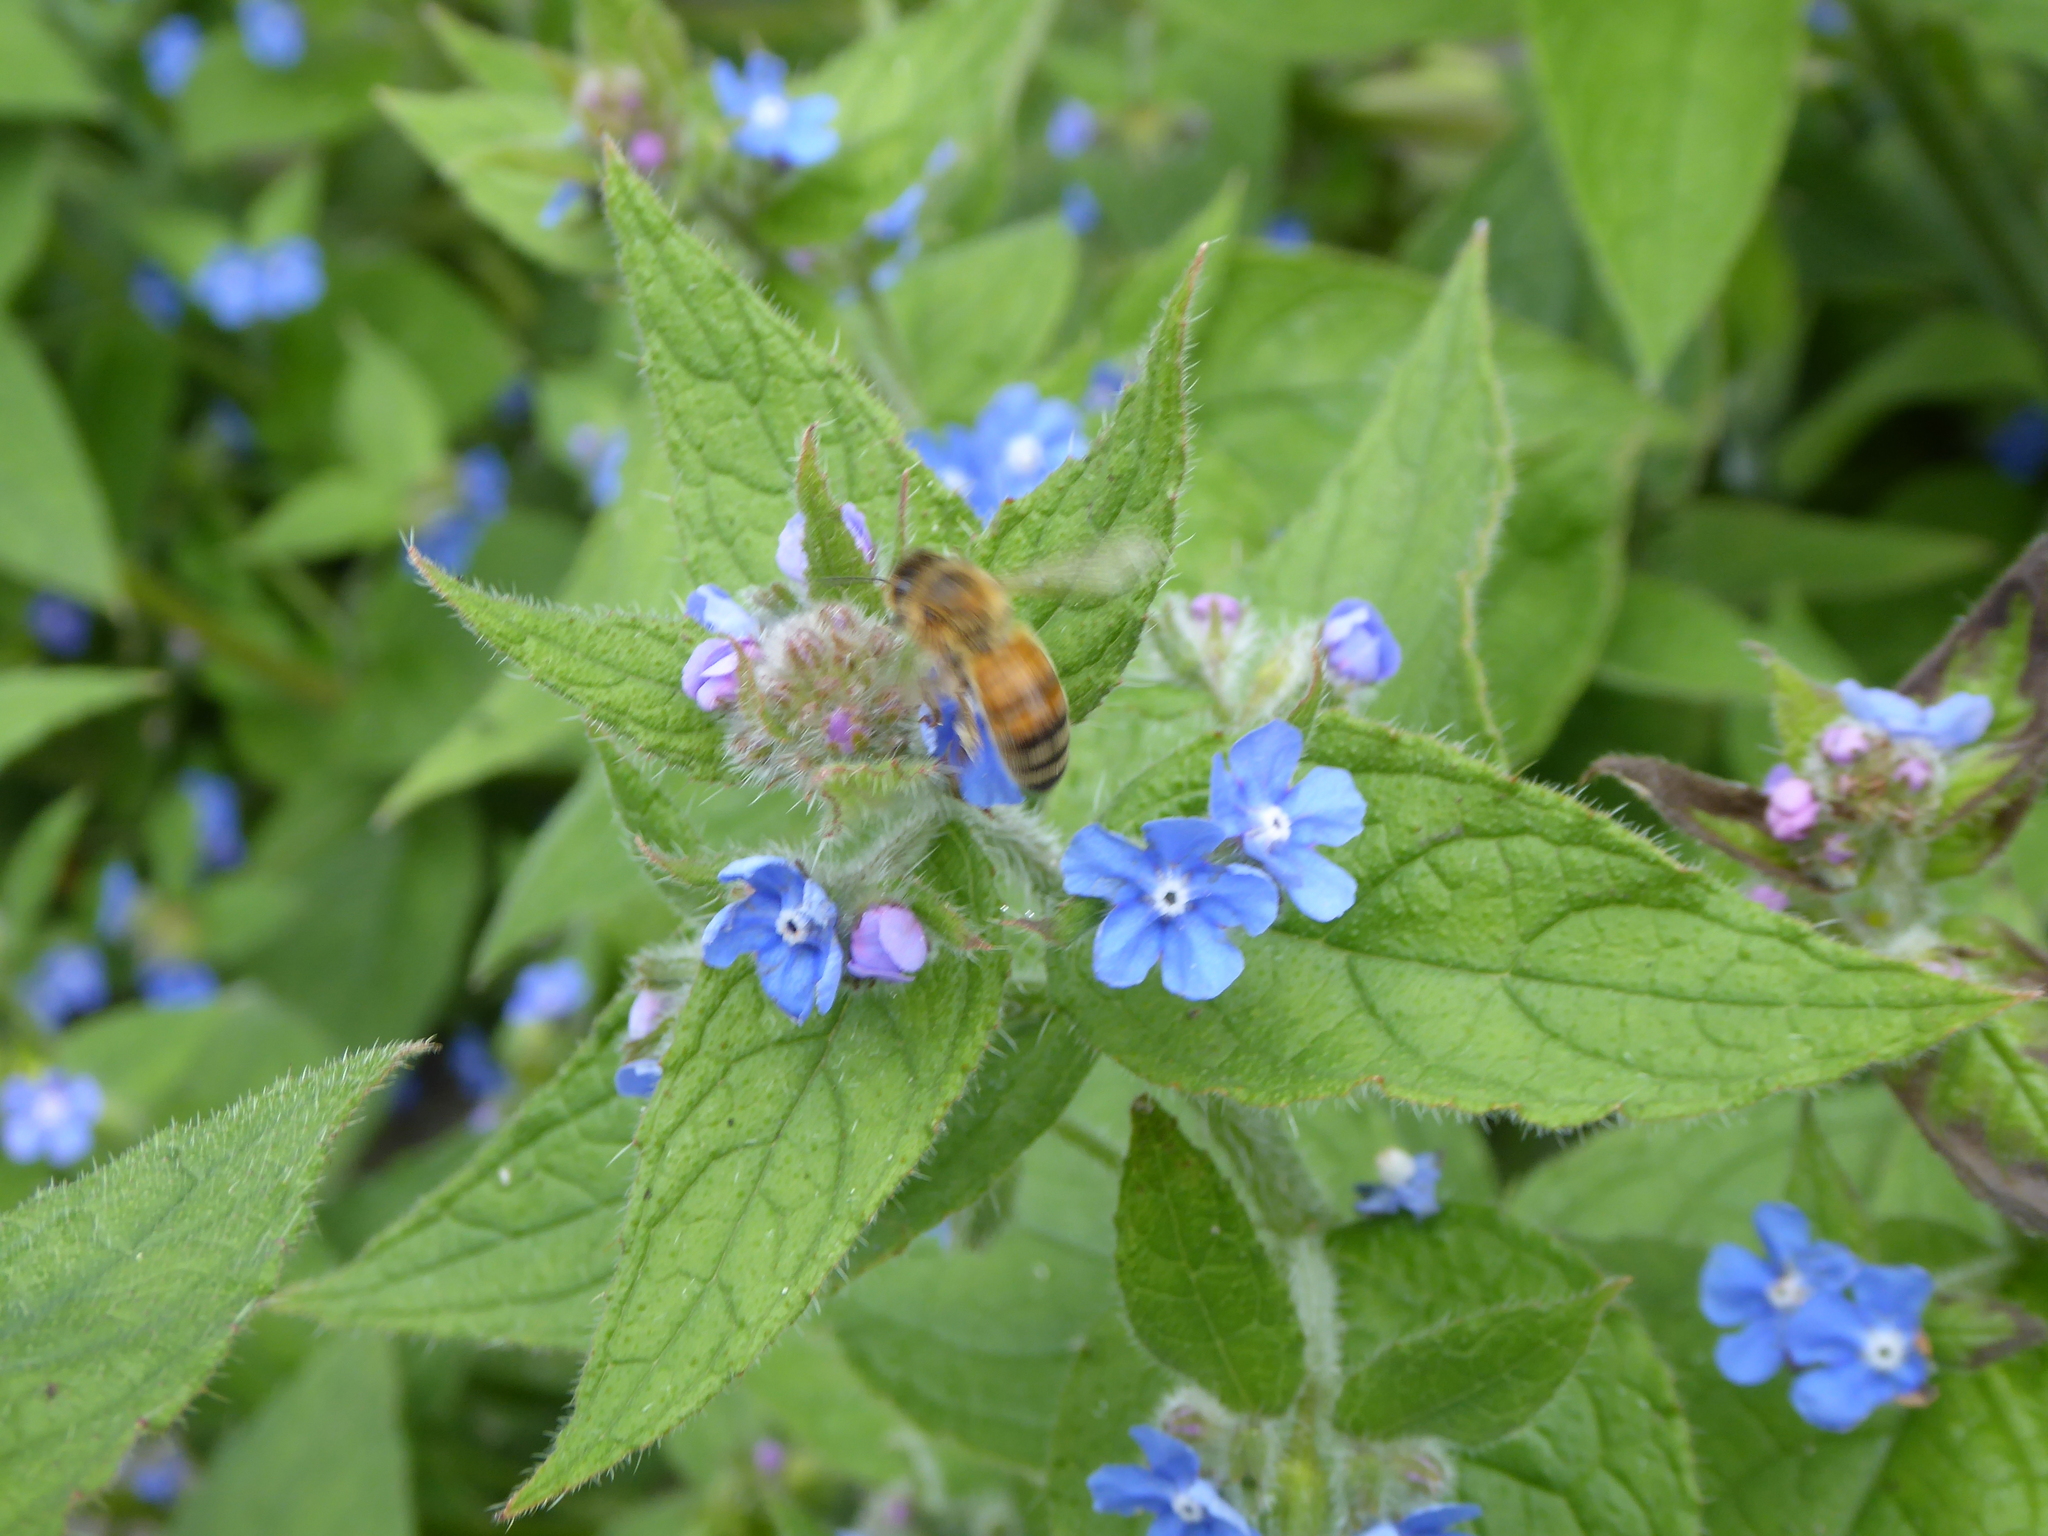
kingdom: Plantae
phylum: Tracheophyta
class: Magnoliopsida
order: Boraginales
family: Boraginaceae
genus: Pentaglottis
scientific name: Pentaglottis sempervirens
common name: Green alkanet
